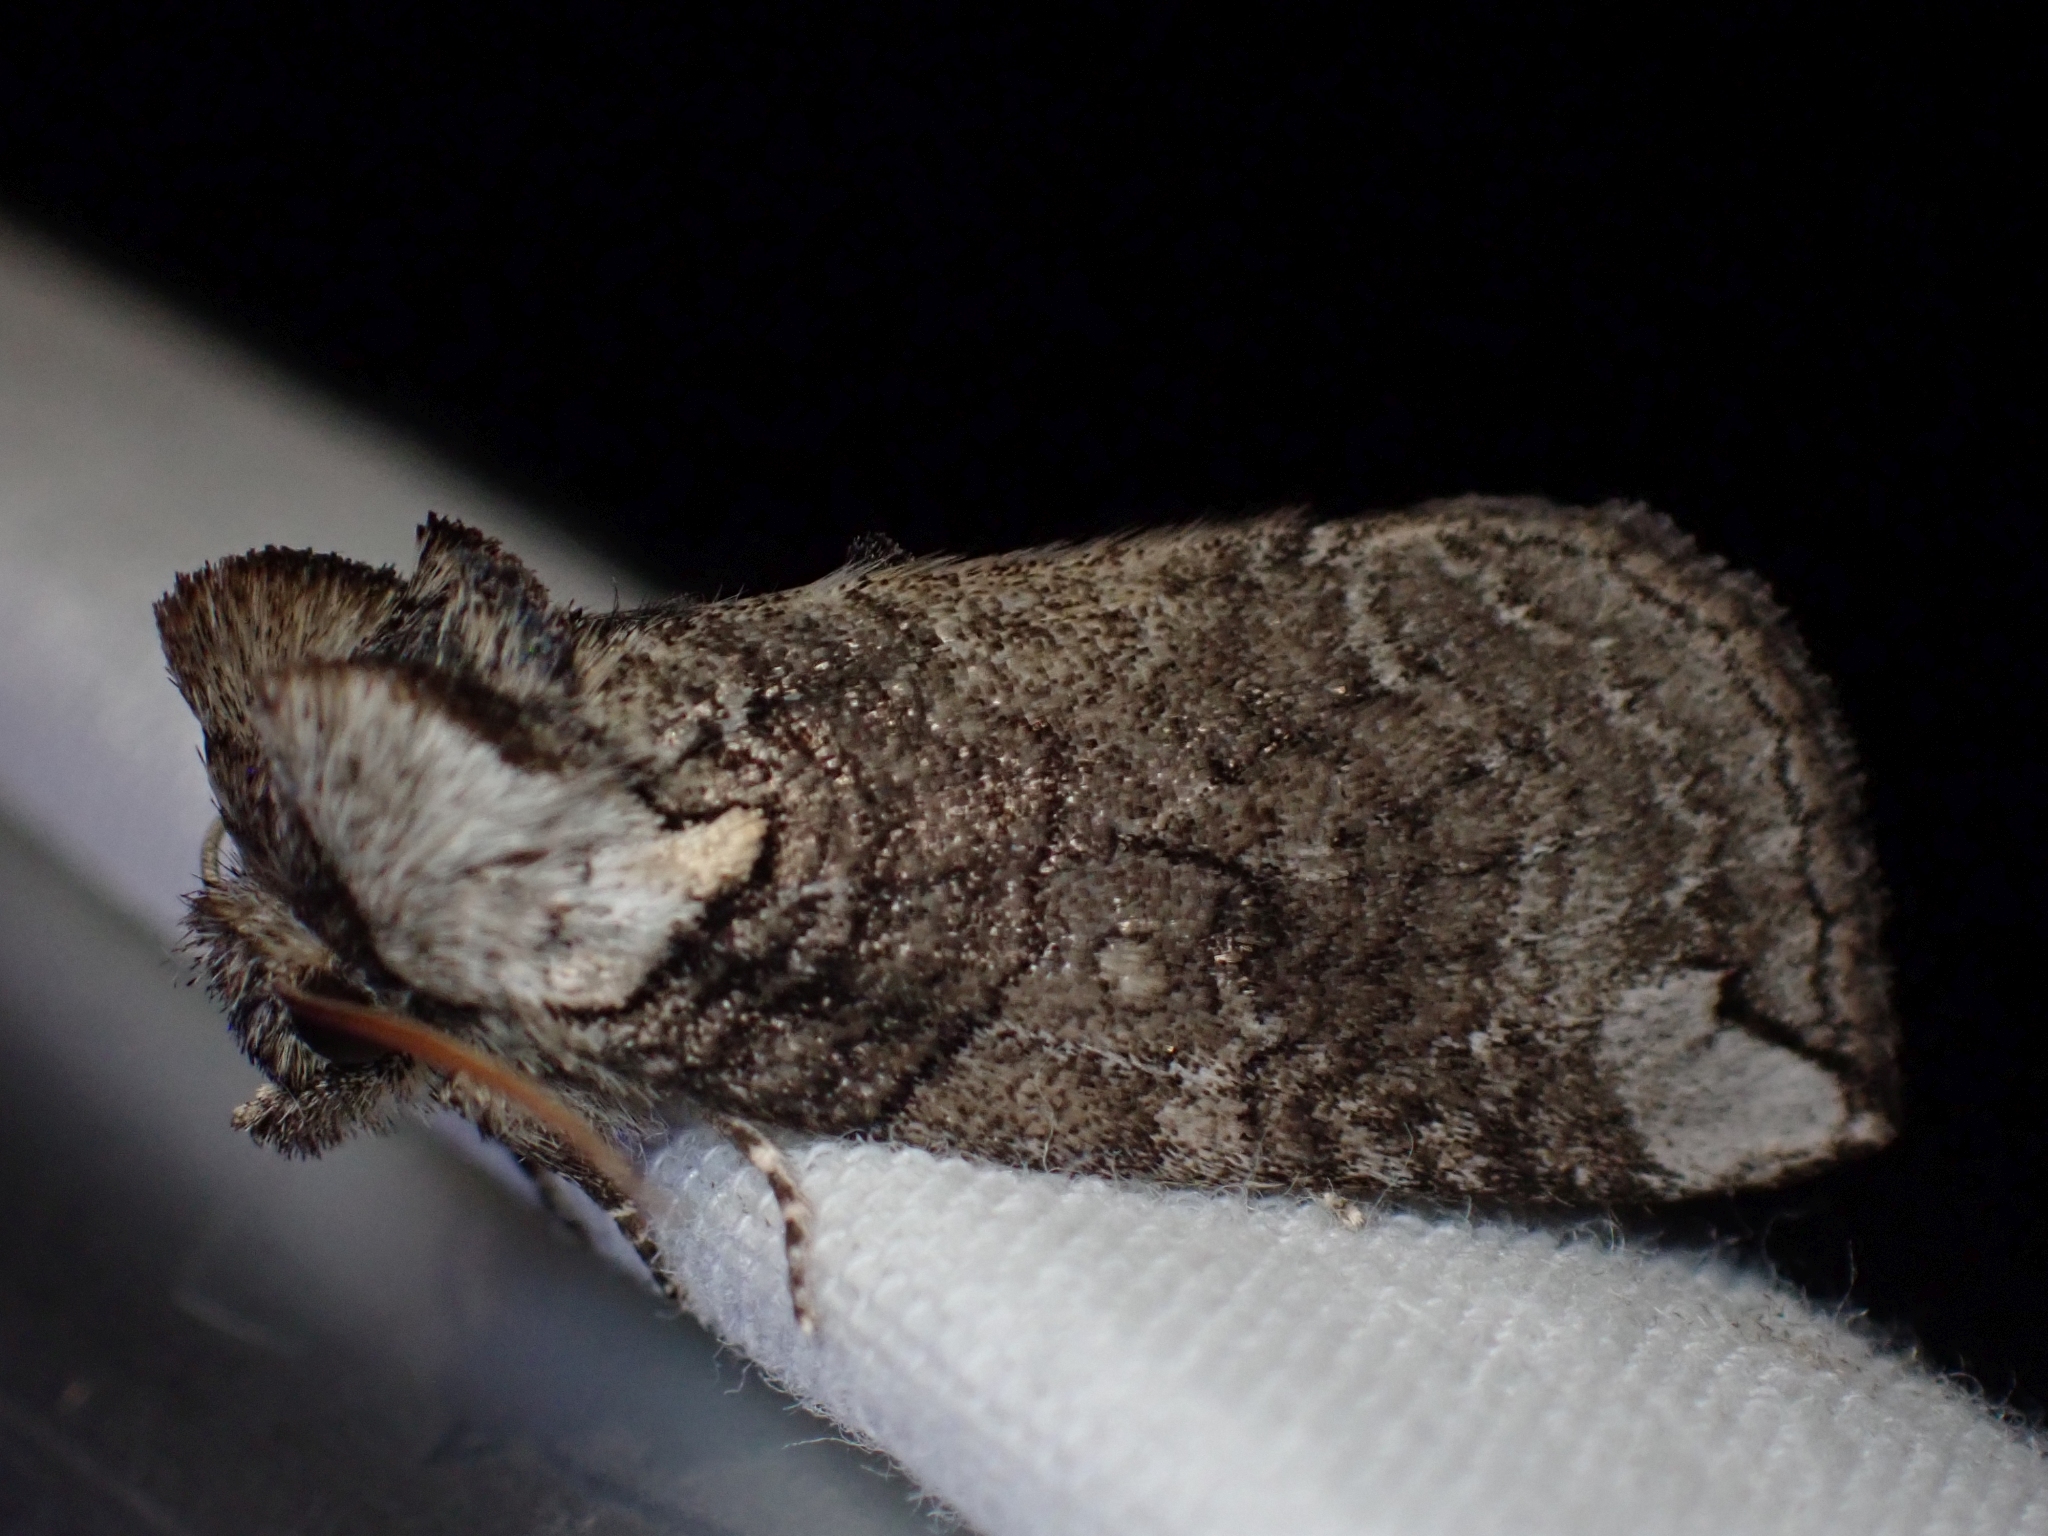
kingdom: Animalia
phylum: Arthropoda
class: Insecta
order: Lepidoptera
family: Drepanidae
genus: Euthyatira
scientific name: Euthyatira semicircularis
